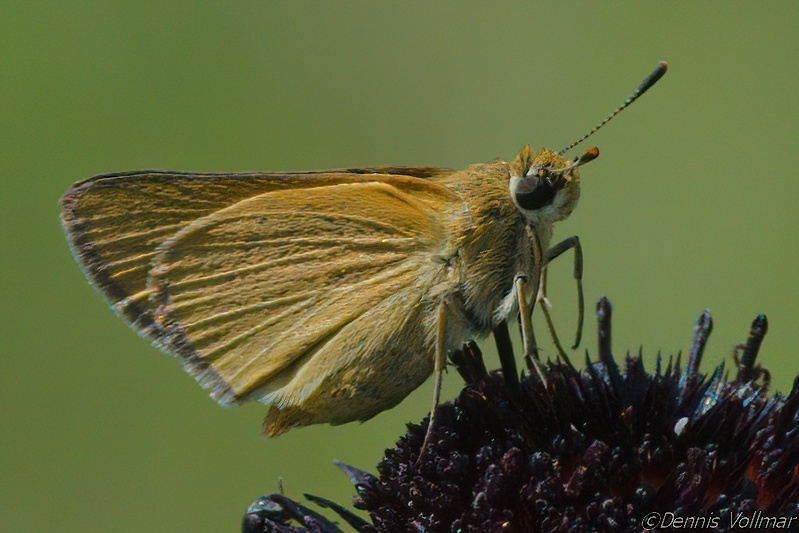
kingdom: Animalia
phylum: Arthropoda
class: Insecta
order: Lepidoptera
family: Hesperiidae
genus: Atrytone
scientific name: Atrytone arogos
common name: Arogos skipper
